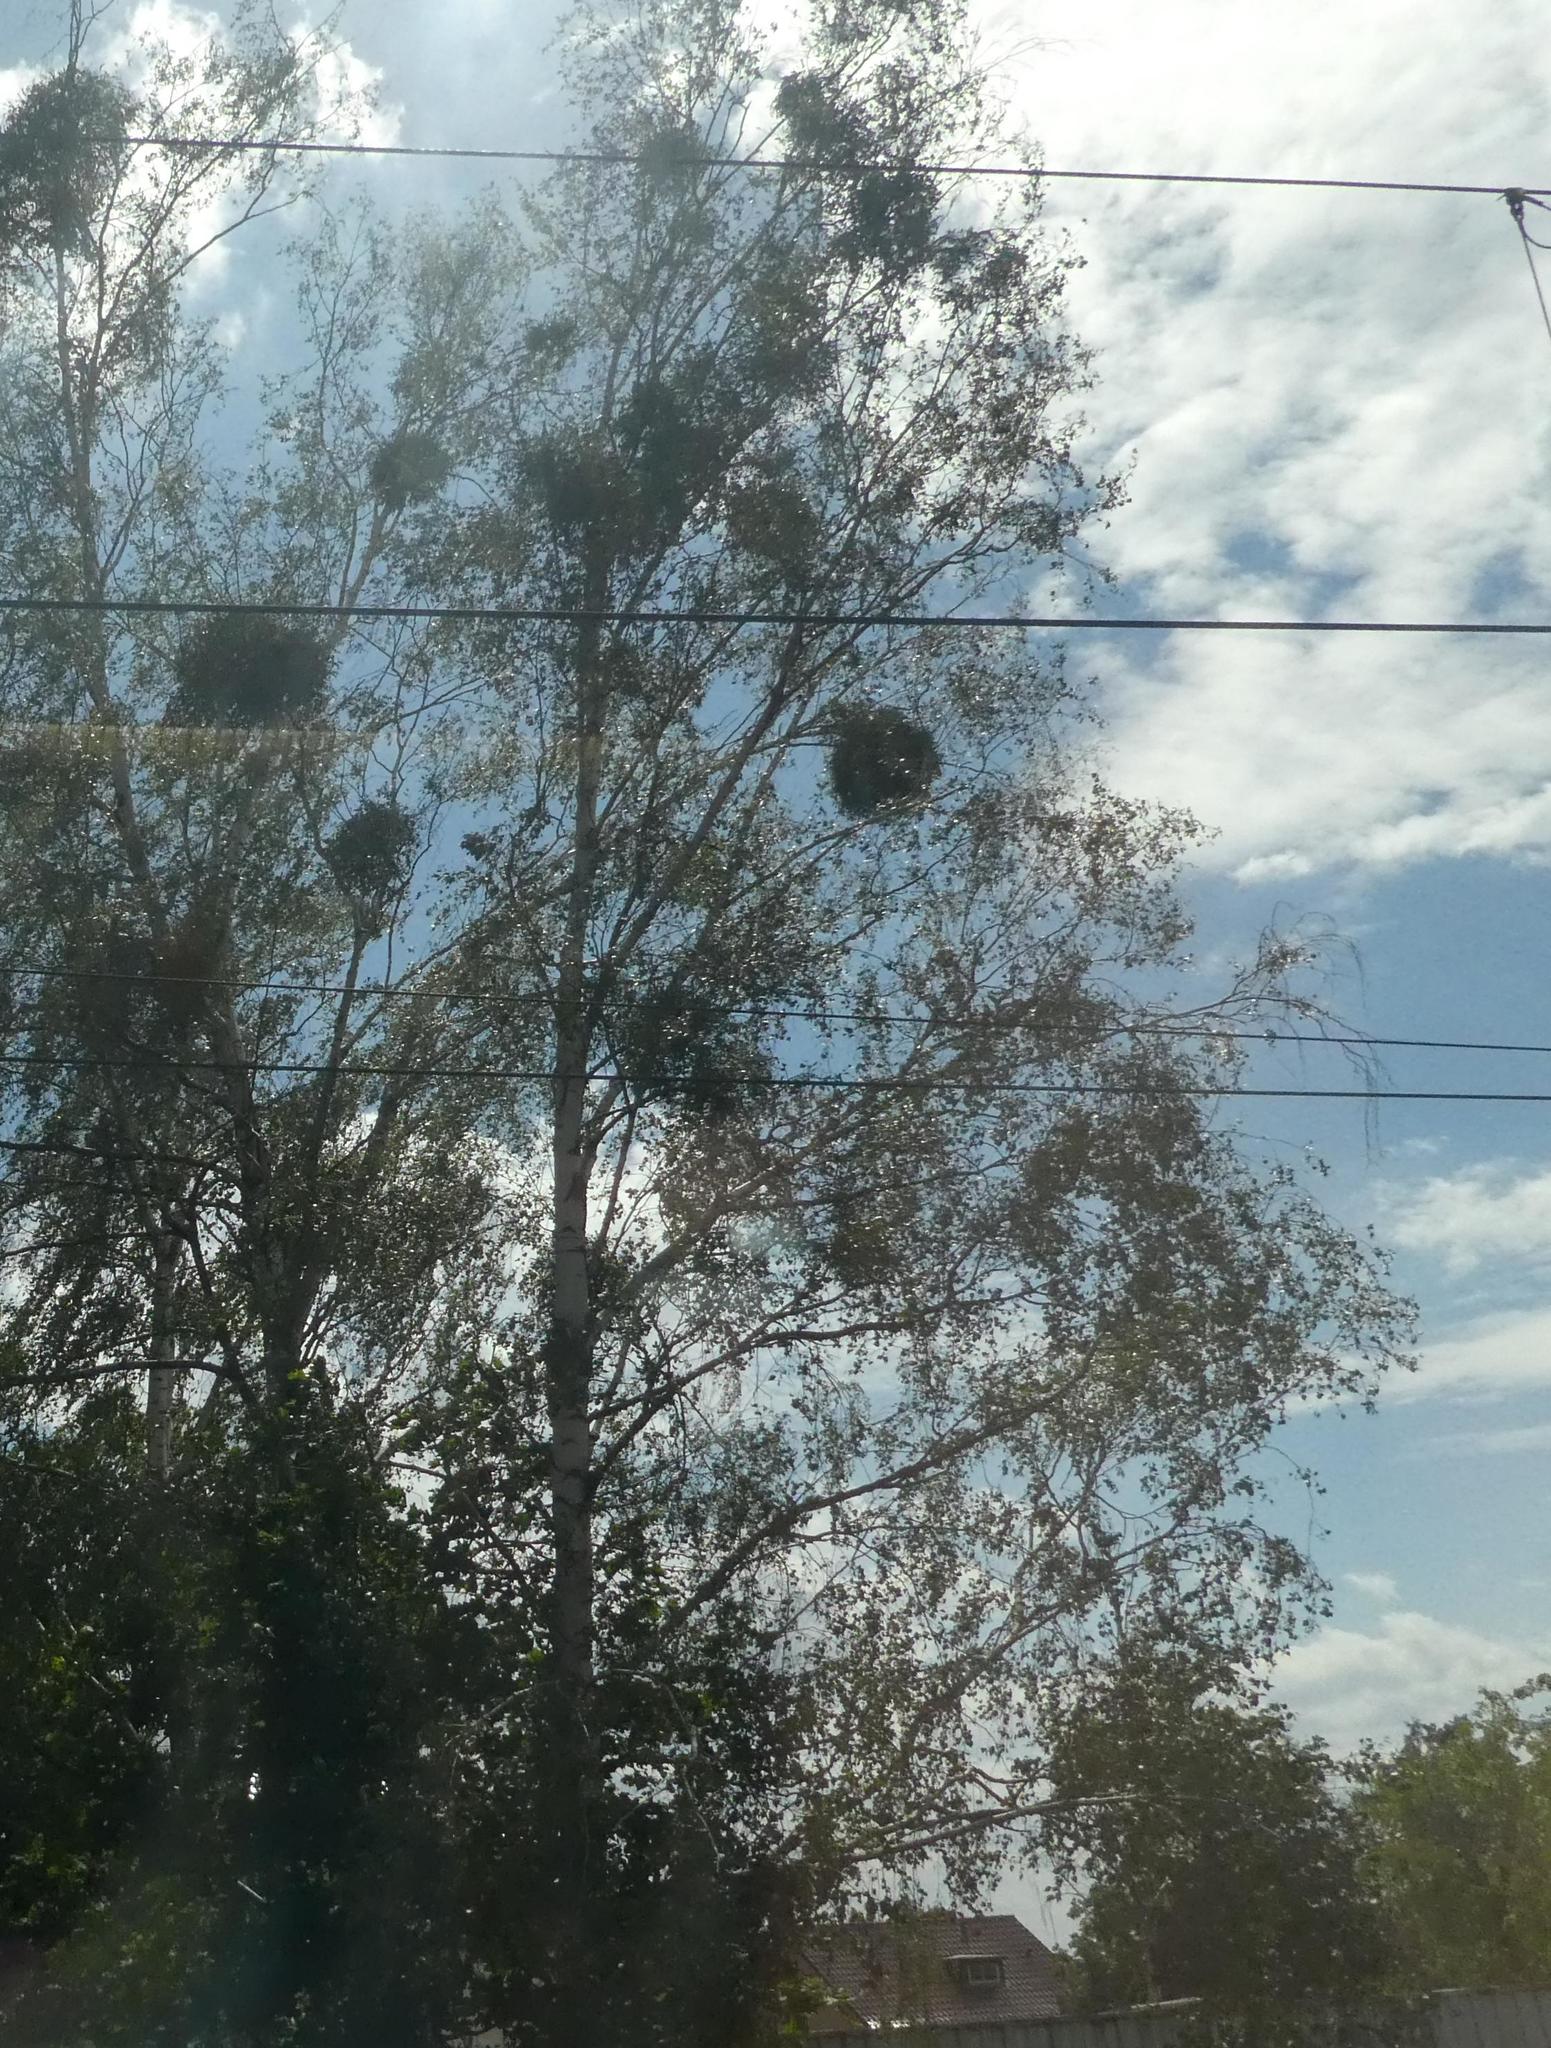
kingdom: Plantae
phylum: Tracheophyta
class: Magnoliopsida
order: Santalales
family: Viscaceae
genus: Viscum
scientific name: Viscum album
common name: Mistletoe
